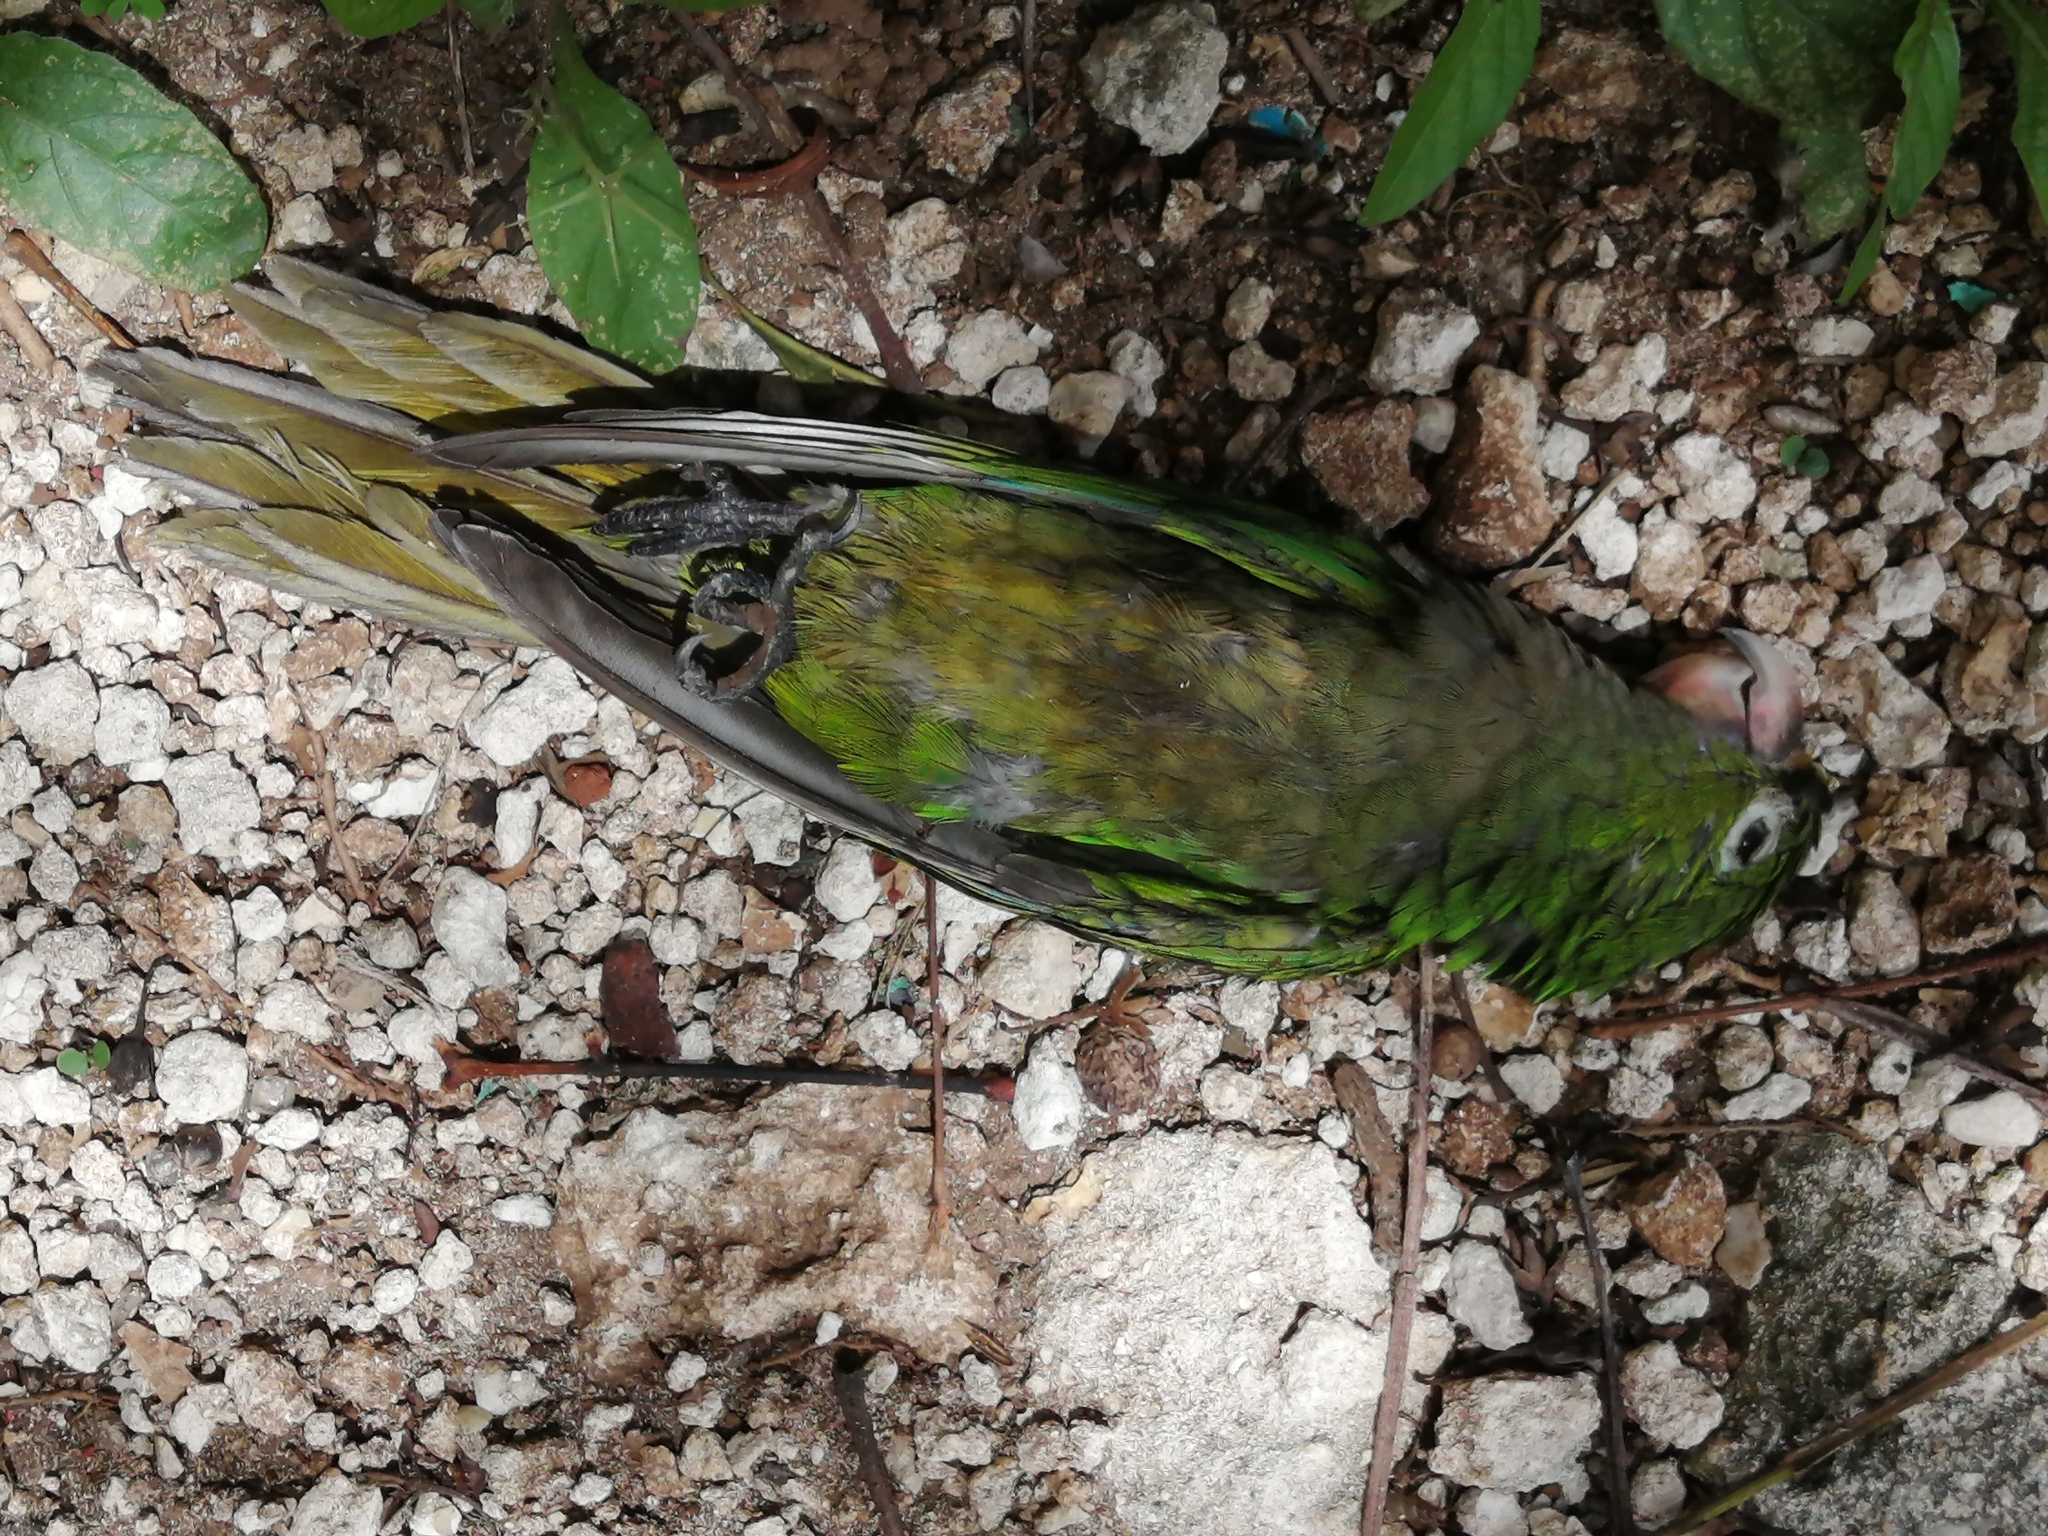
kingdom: Animalia
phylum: Chordata
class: Aves
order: Psittaciformes
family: Psittacidae
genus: Aratinga
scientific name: Aratinga nana
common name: Olive-throated parakeet
